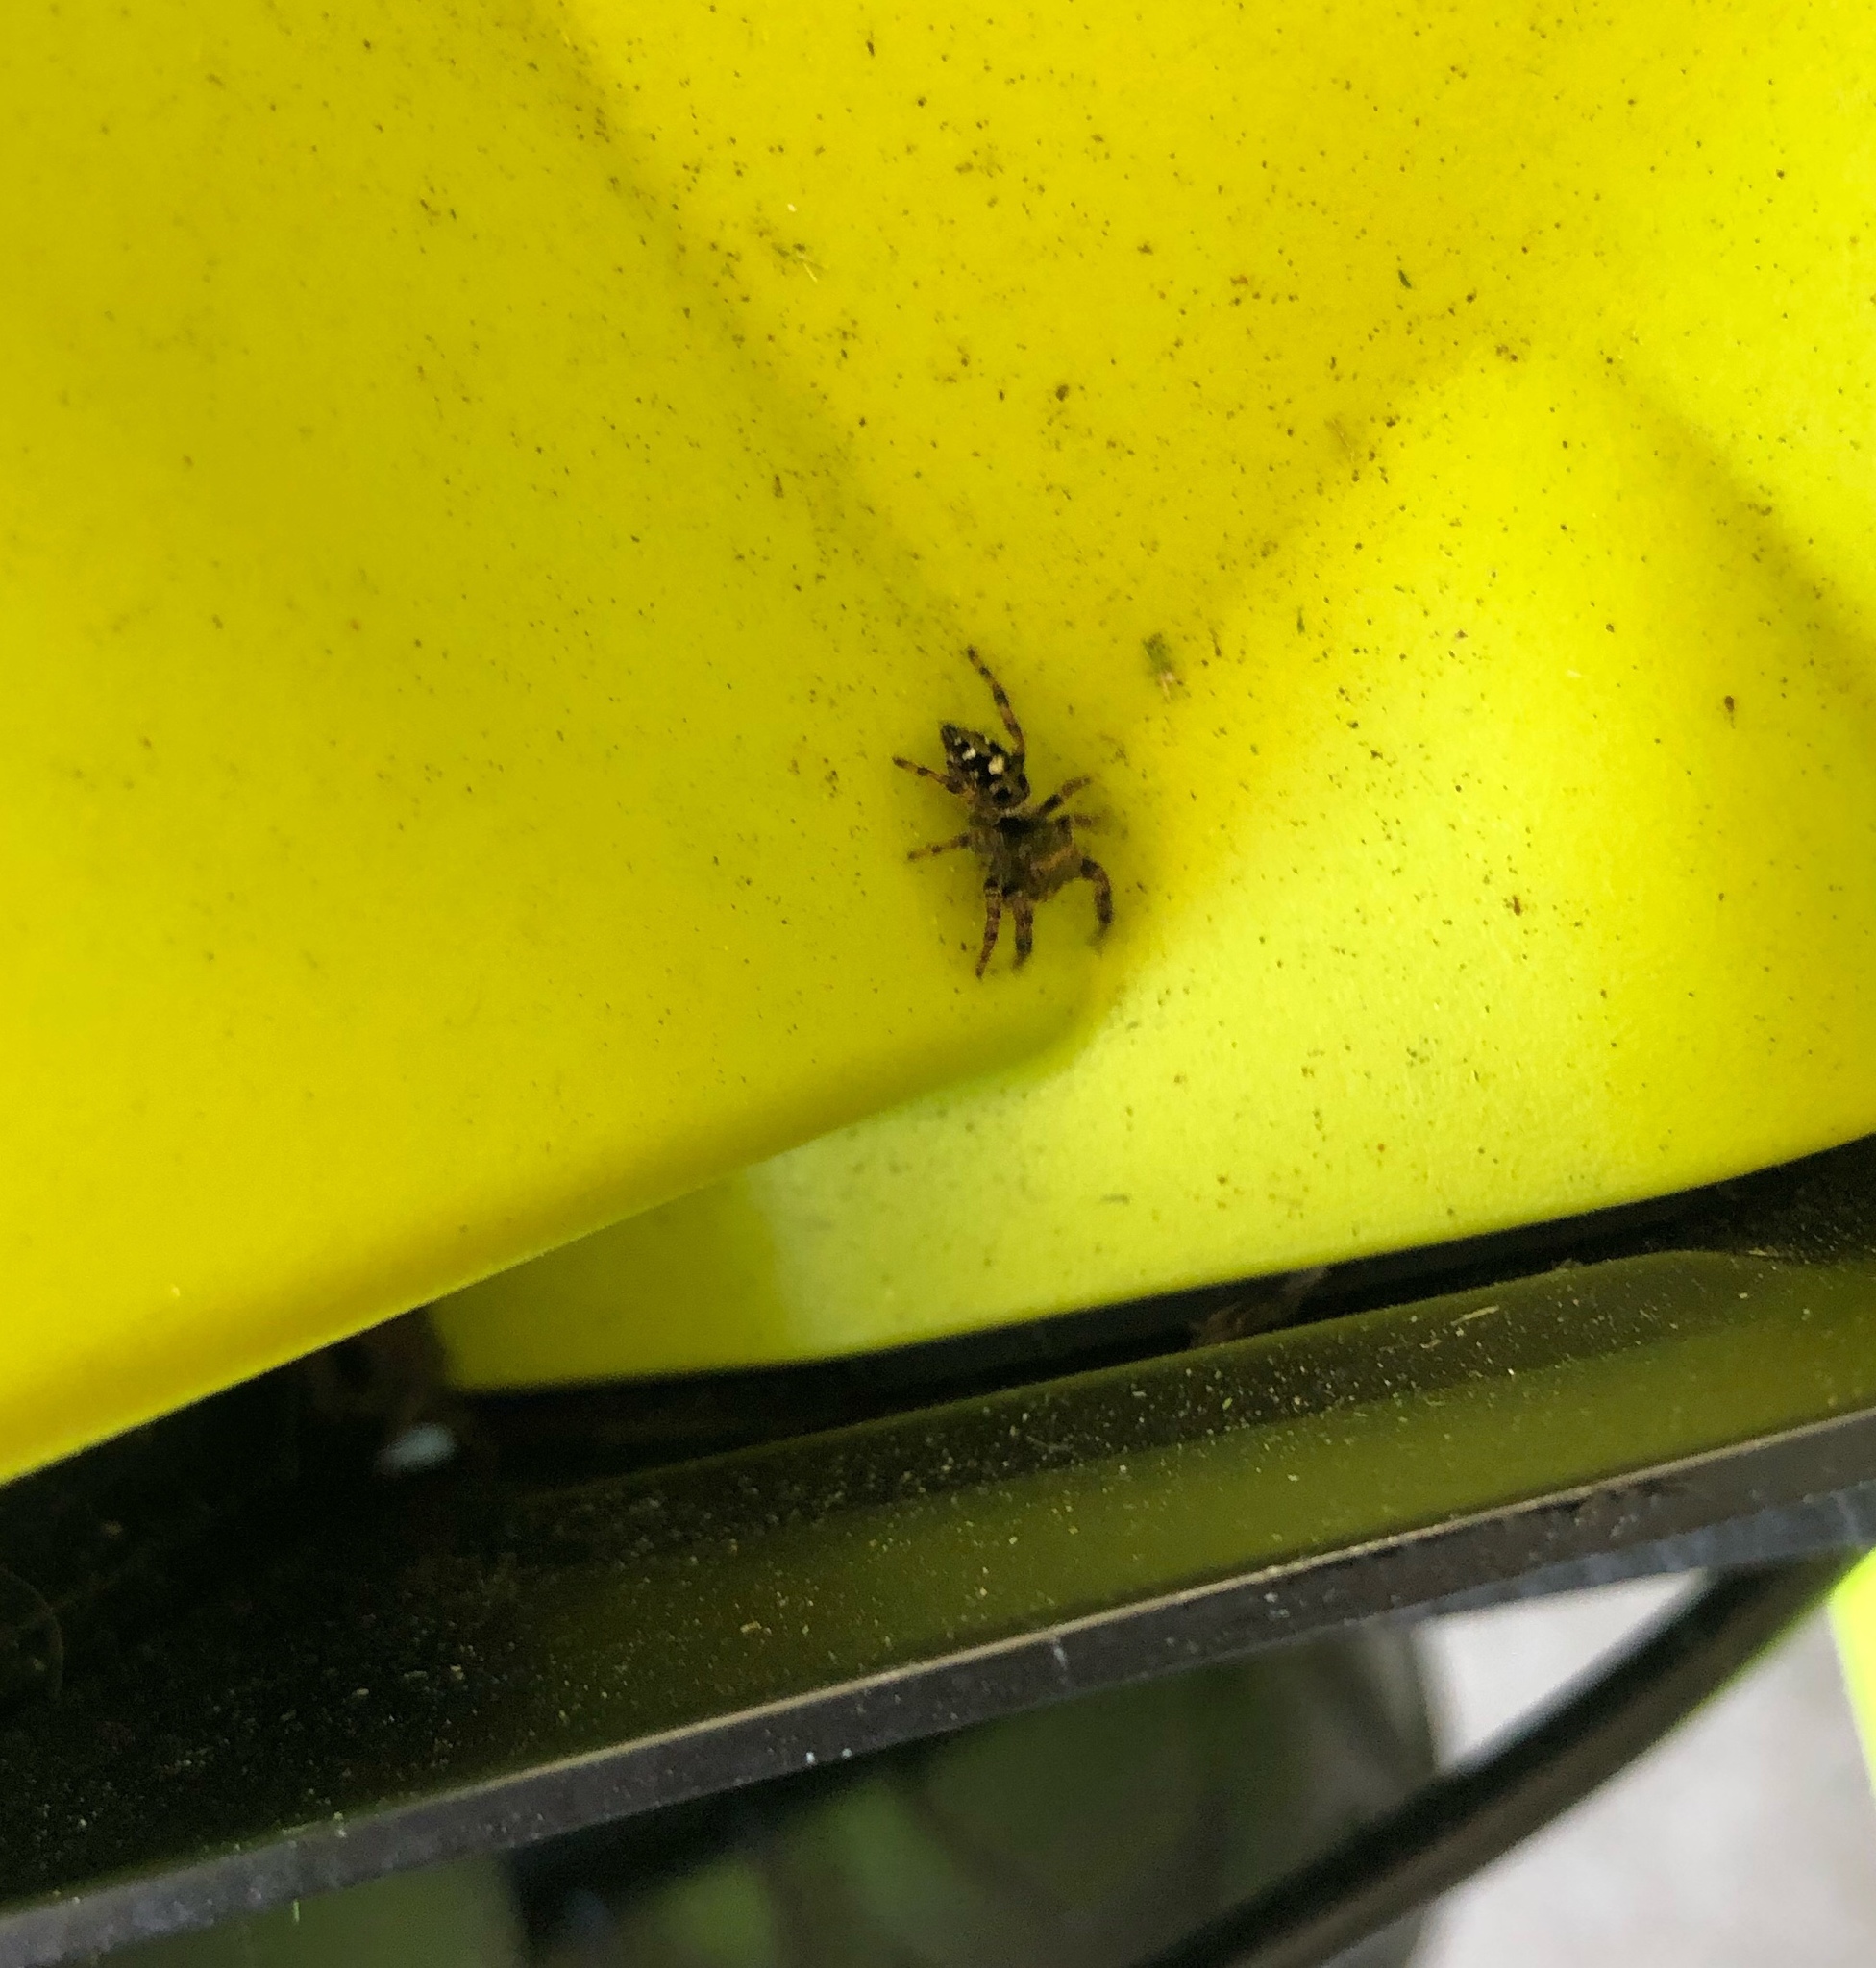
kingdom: Animalia
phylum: Arthropoda
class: Arachnida
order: Araneae
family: Salticidae
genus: Phidippus
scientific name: Phidippus audax
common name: Bold jumper
